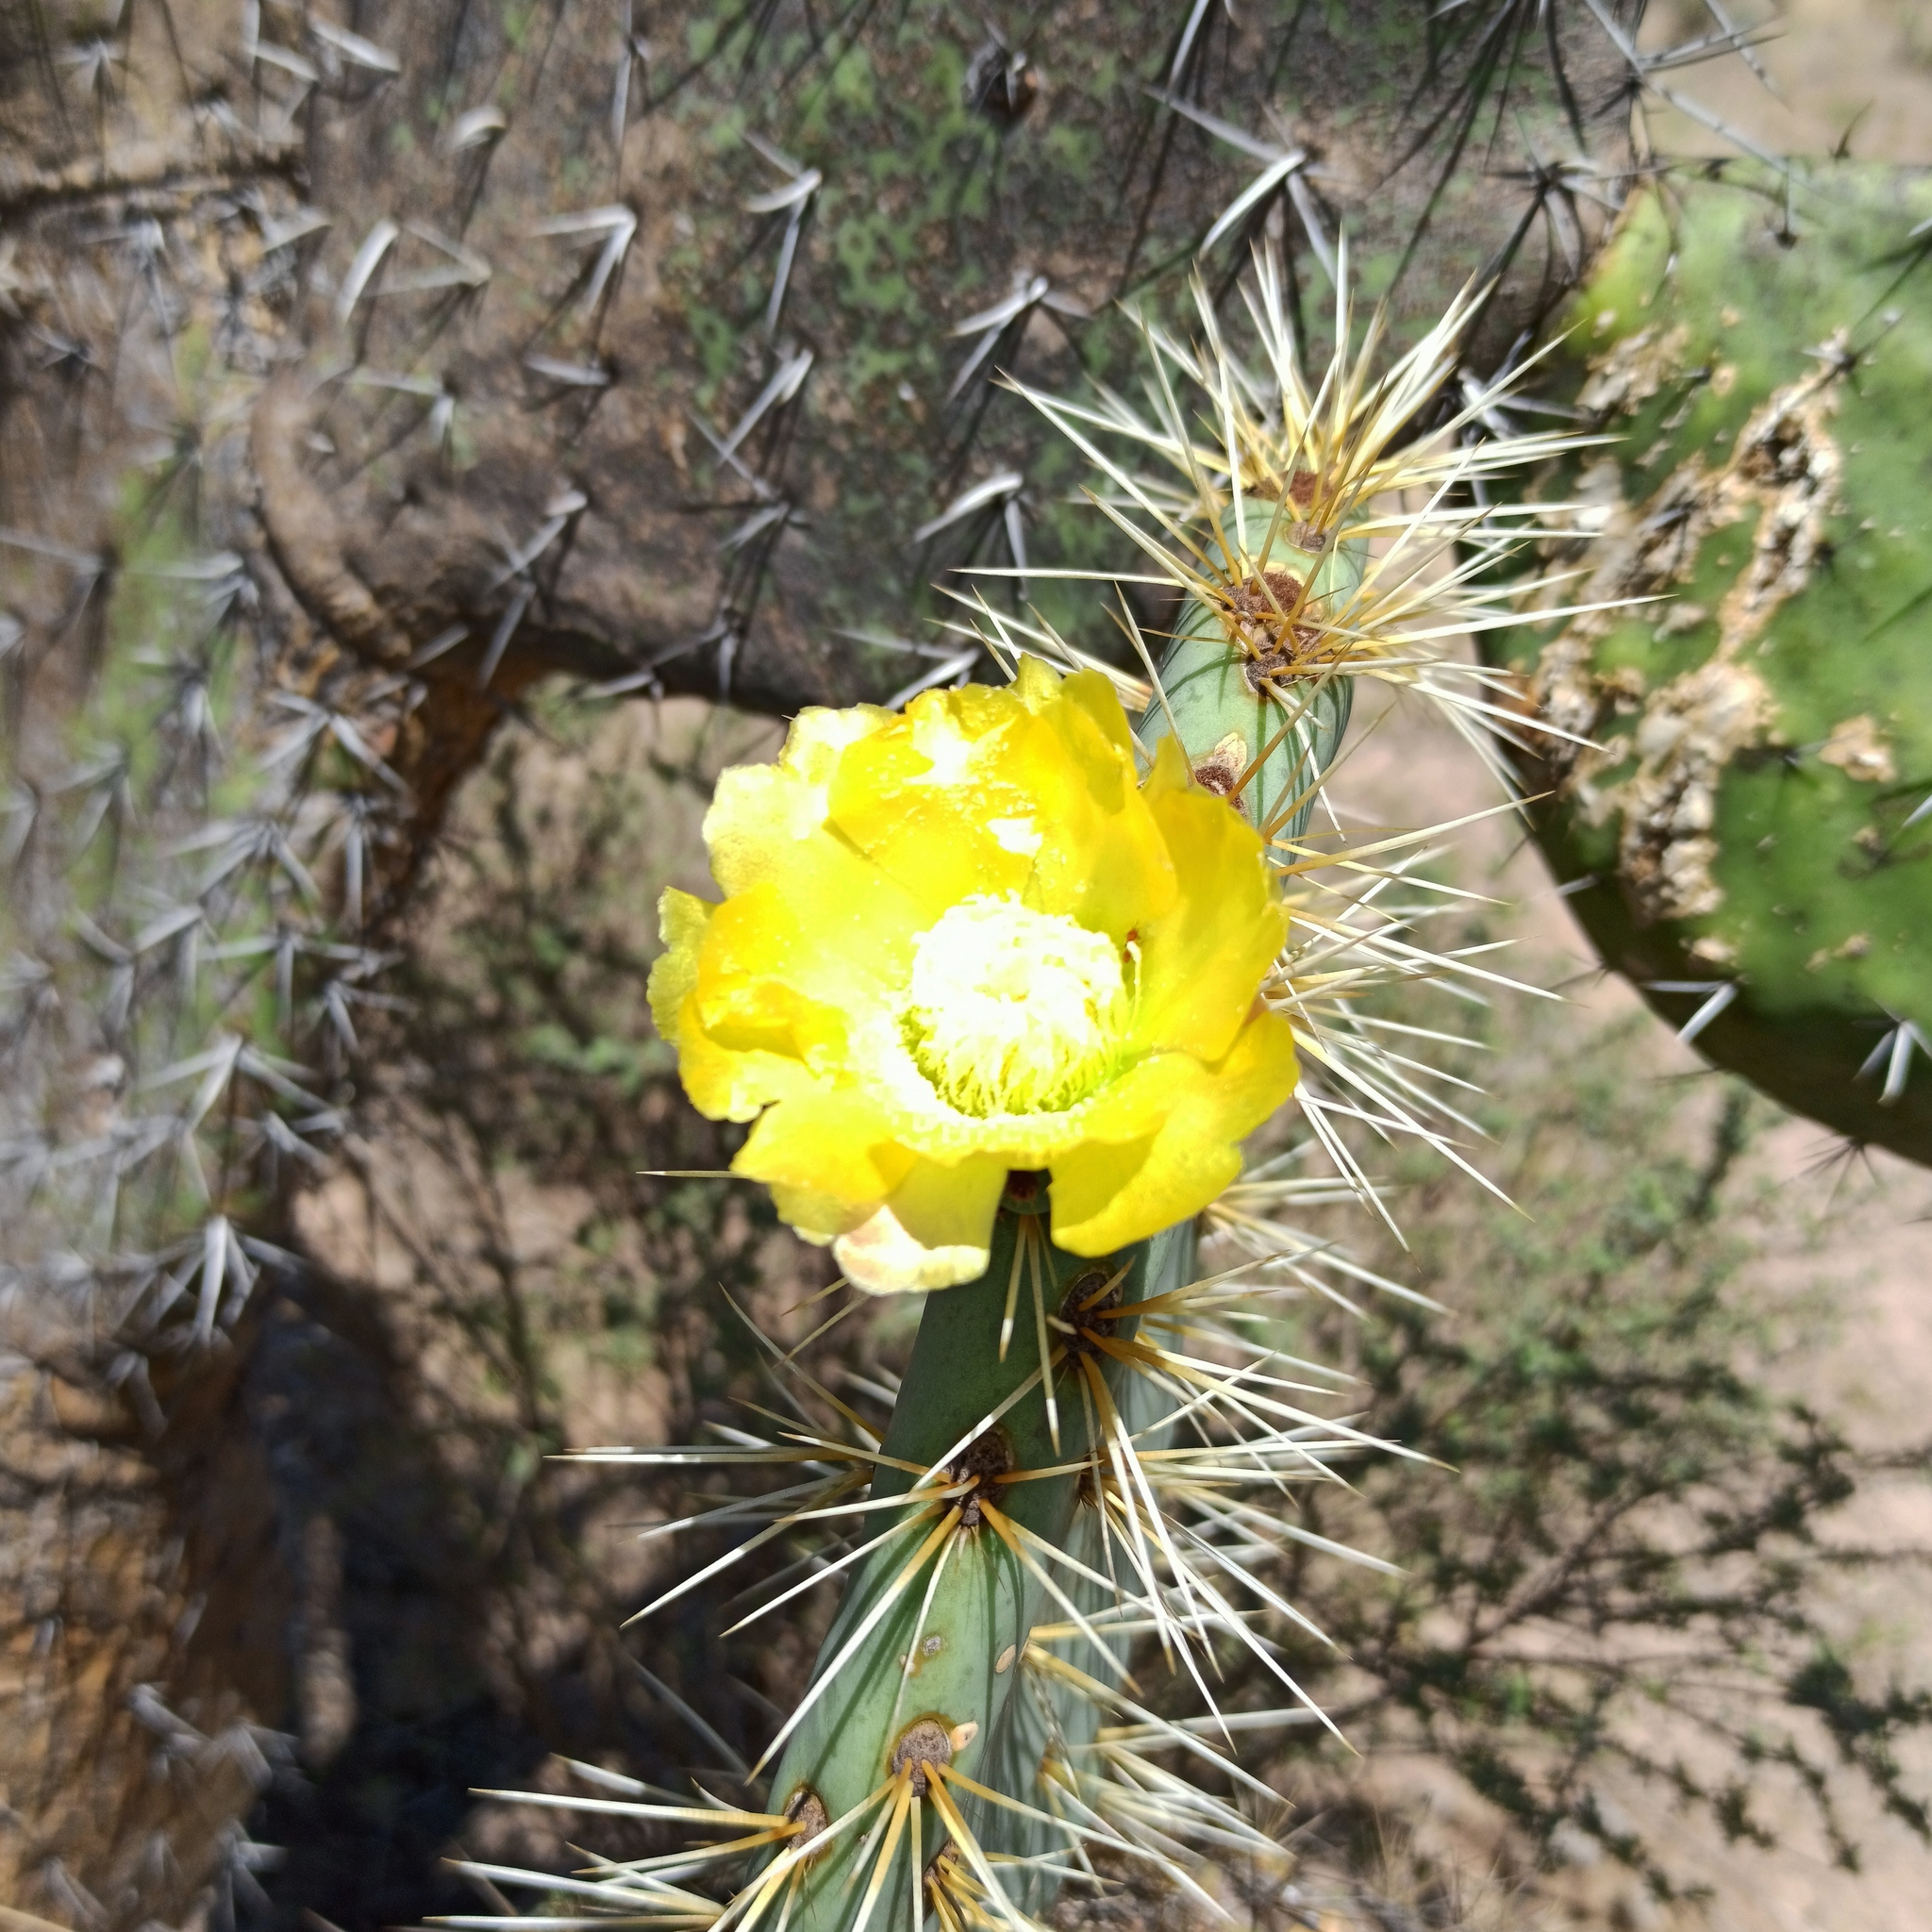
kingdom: Plantae
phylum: Tracheophyta
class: Magnoliopsida
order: Caryophyllales
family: Cactaceae
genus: Opuntia
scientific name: Opuntia robusta
